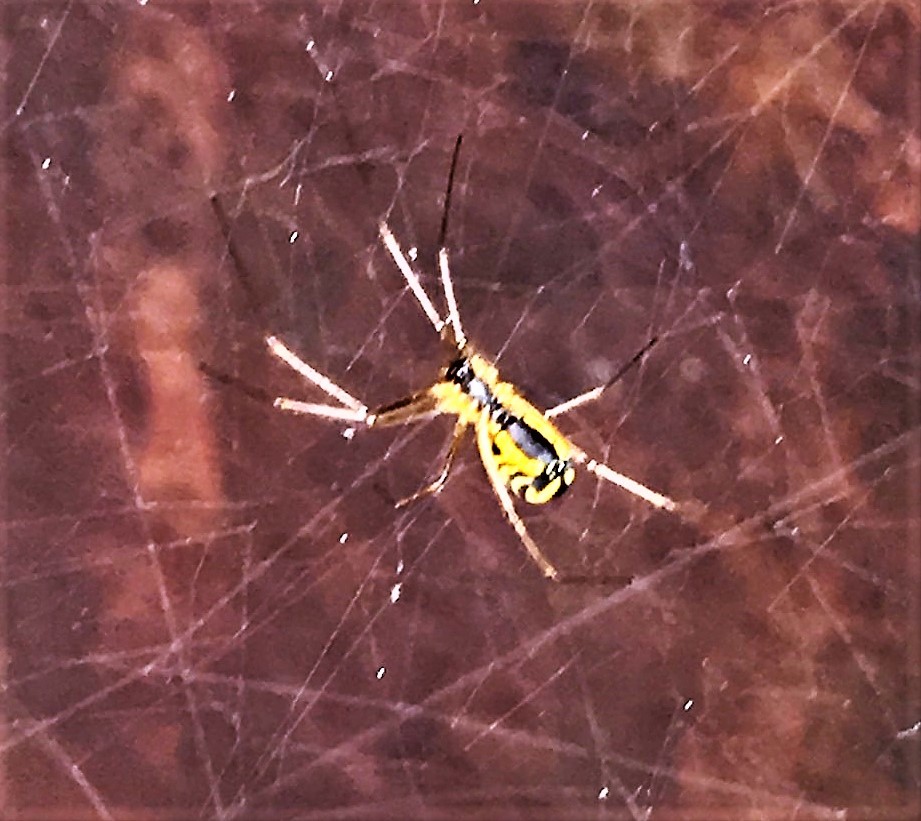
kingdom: Animalia
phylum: Arthropoda
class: Arachnida
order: Araneae
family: Linyphiidae
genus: Neriene
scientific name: Neriene radiata
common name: Filmy dome spider
